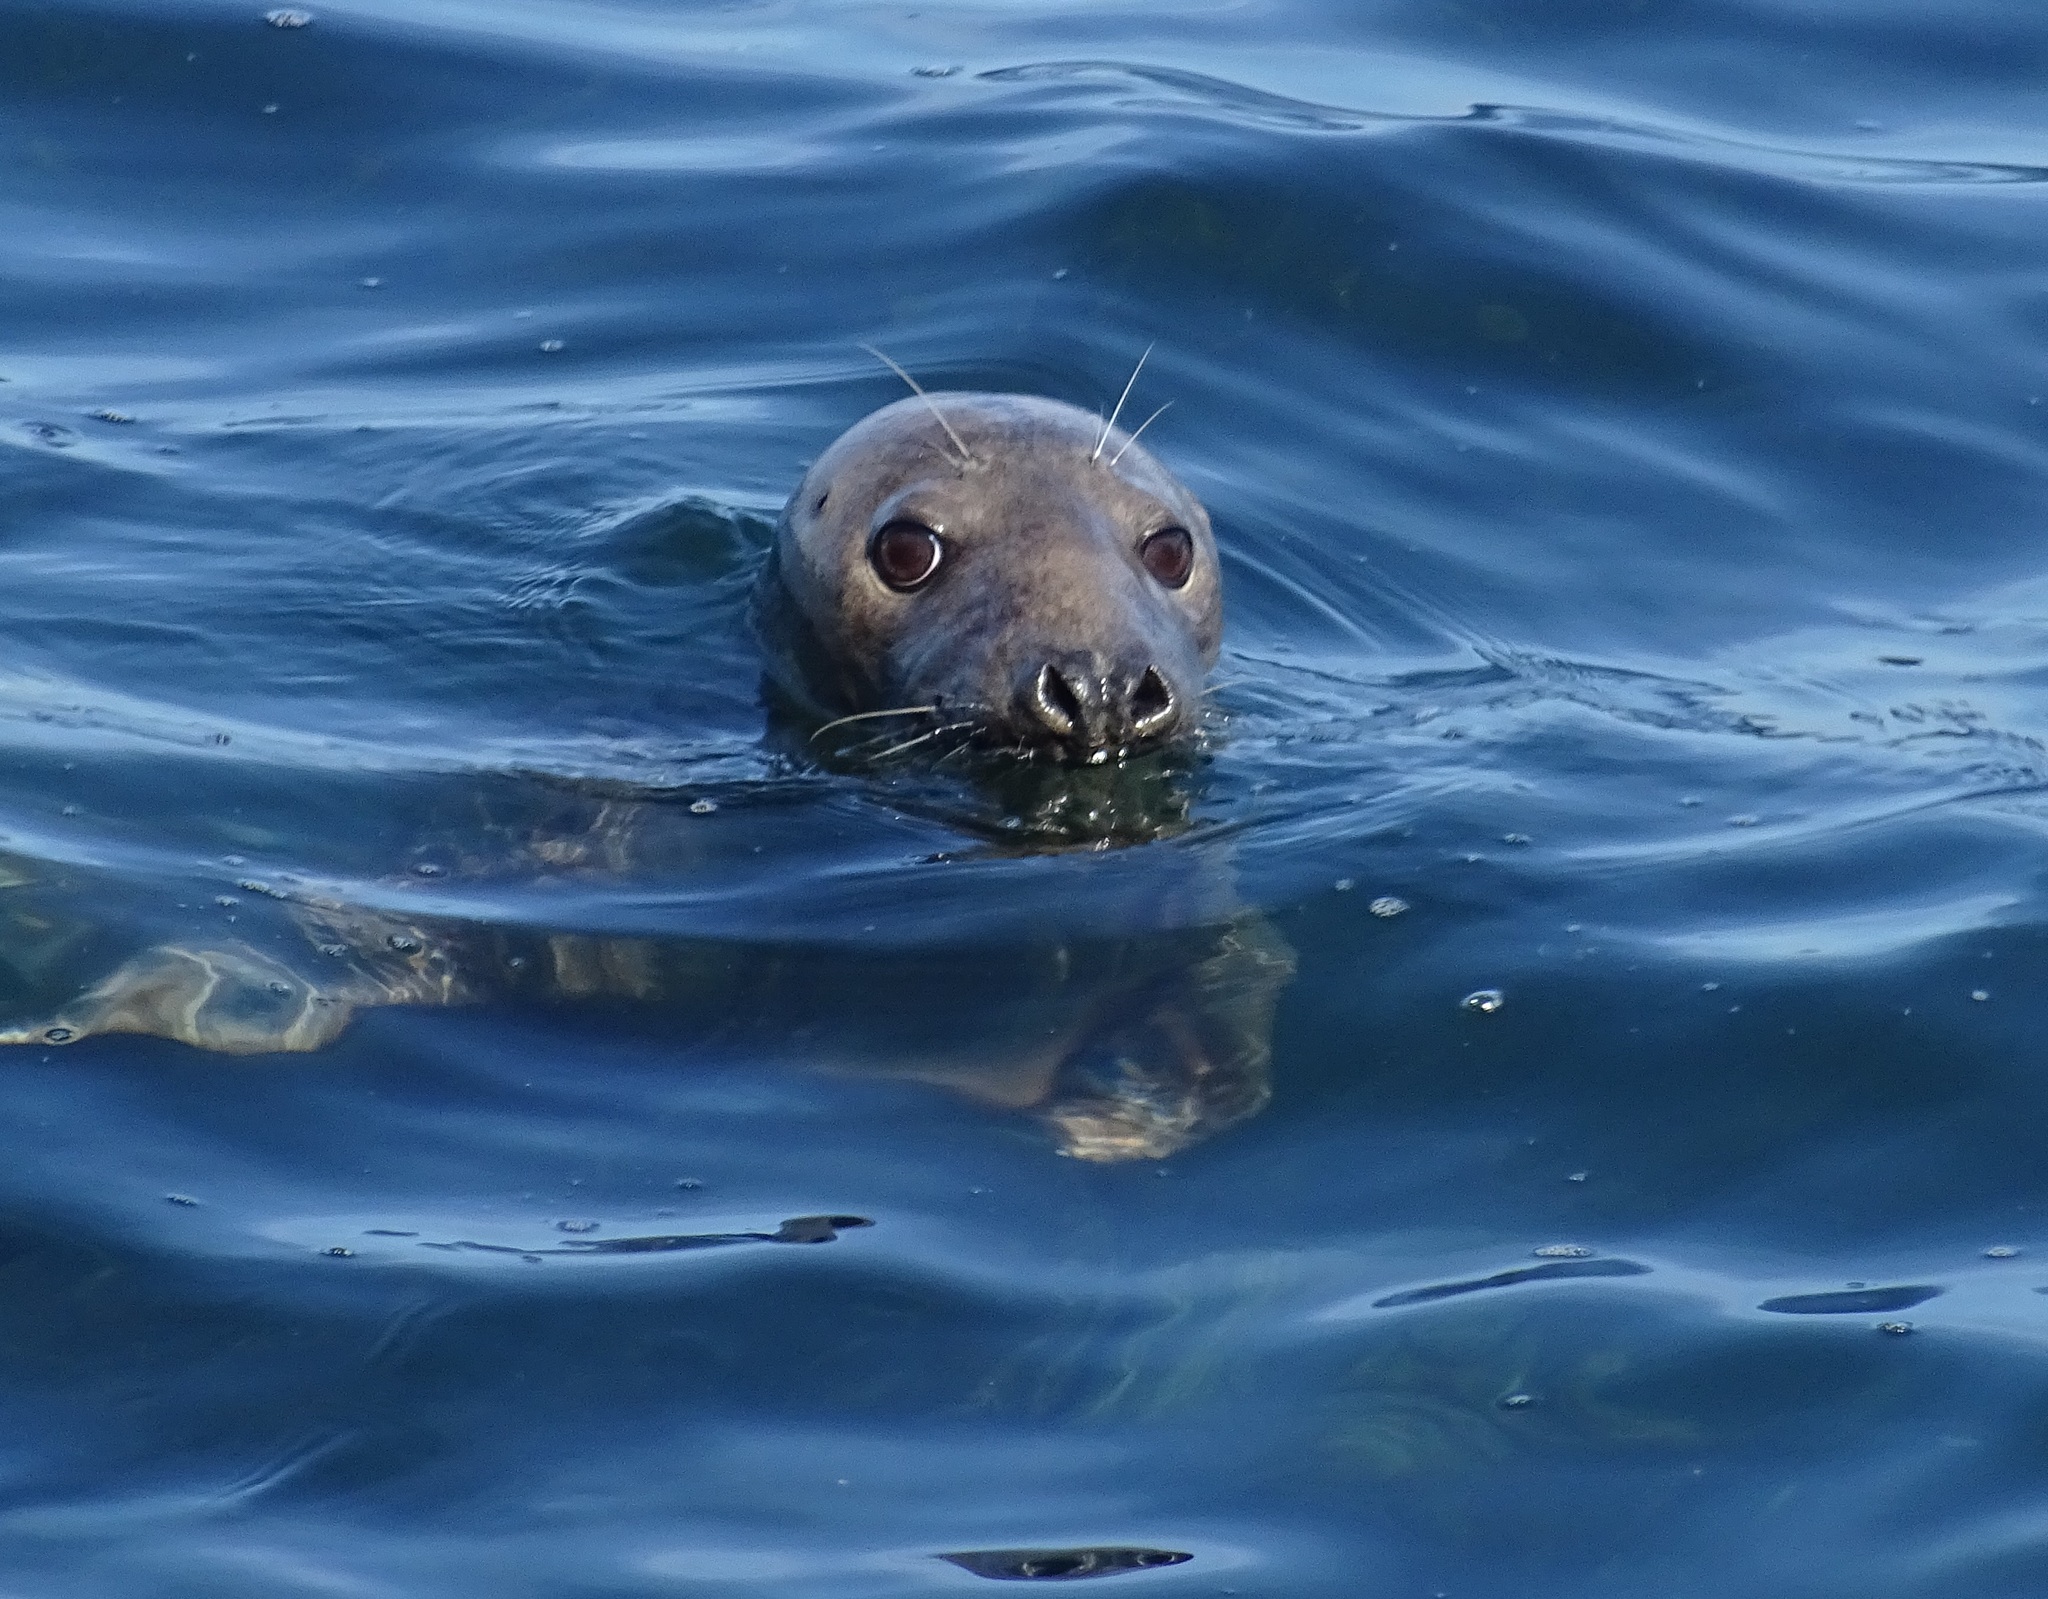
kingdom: Animalia
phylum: Chordata
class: Mammalia
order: Carnivora
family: Phocidae
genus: Halichoerus
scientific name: Halichoerus grypus
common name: Grey seal
